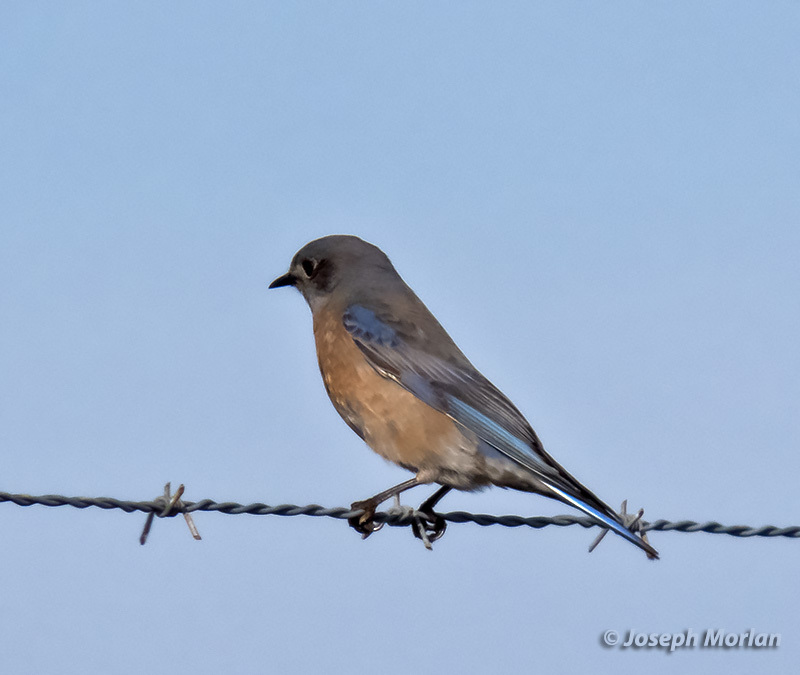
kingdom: Animalia
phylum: Chordata
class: Aves
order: Passeriformes
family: Turdidae
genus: Sialia
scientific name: Sialia mexicana
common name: Western bluebird
